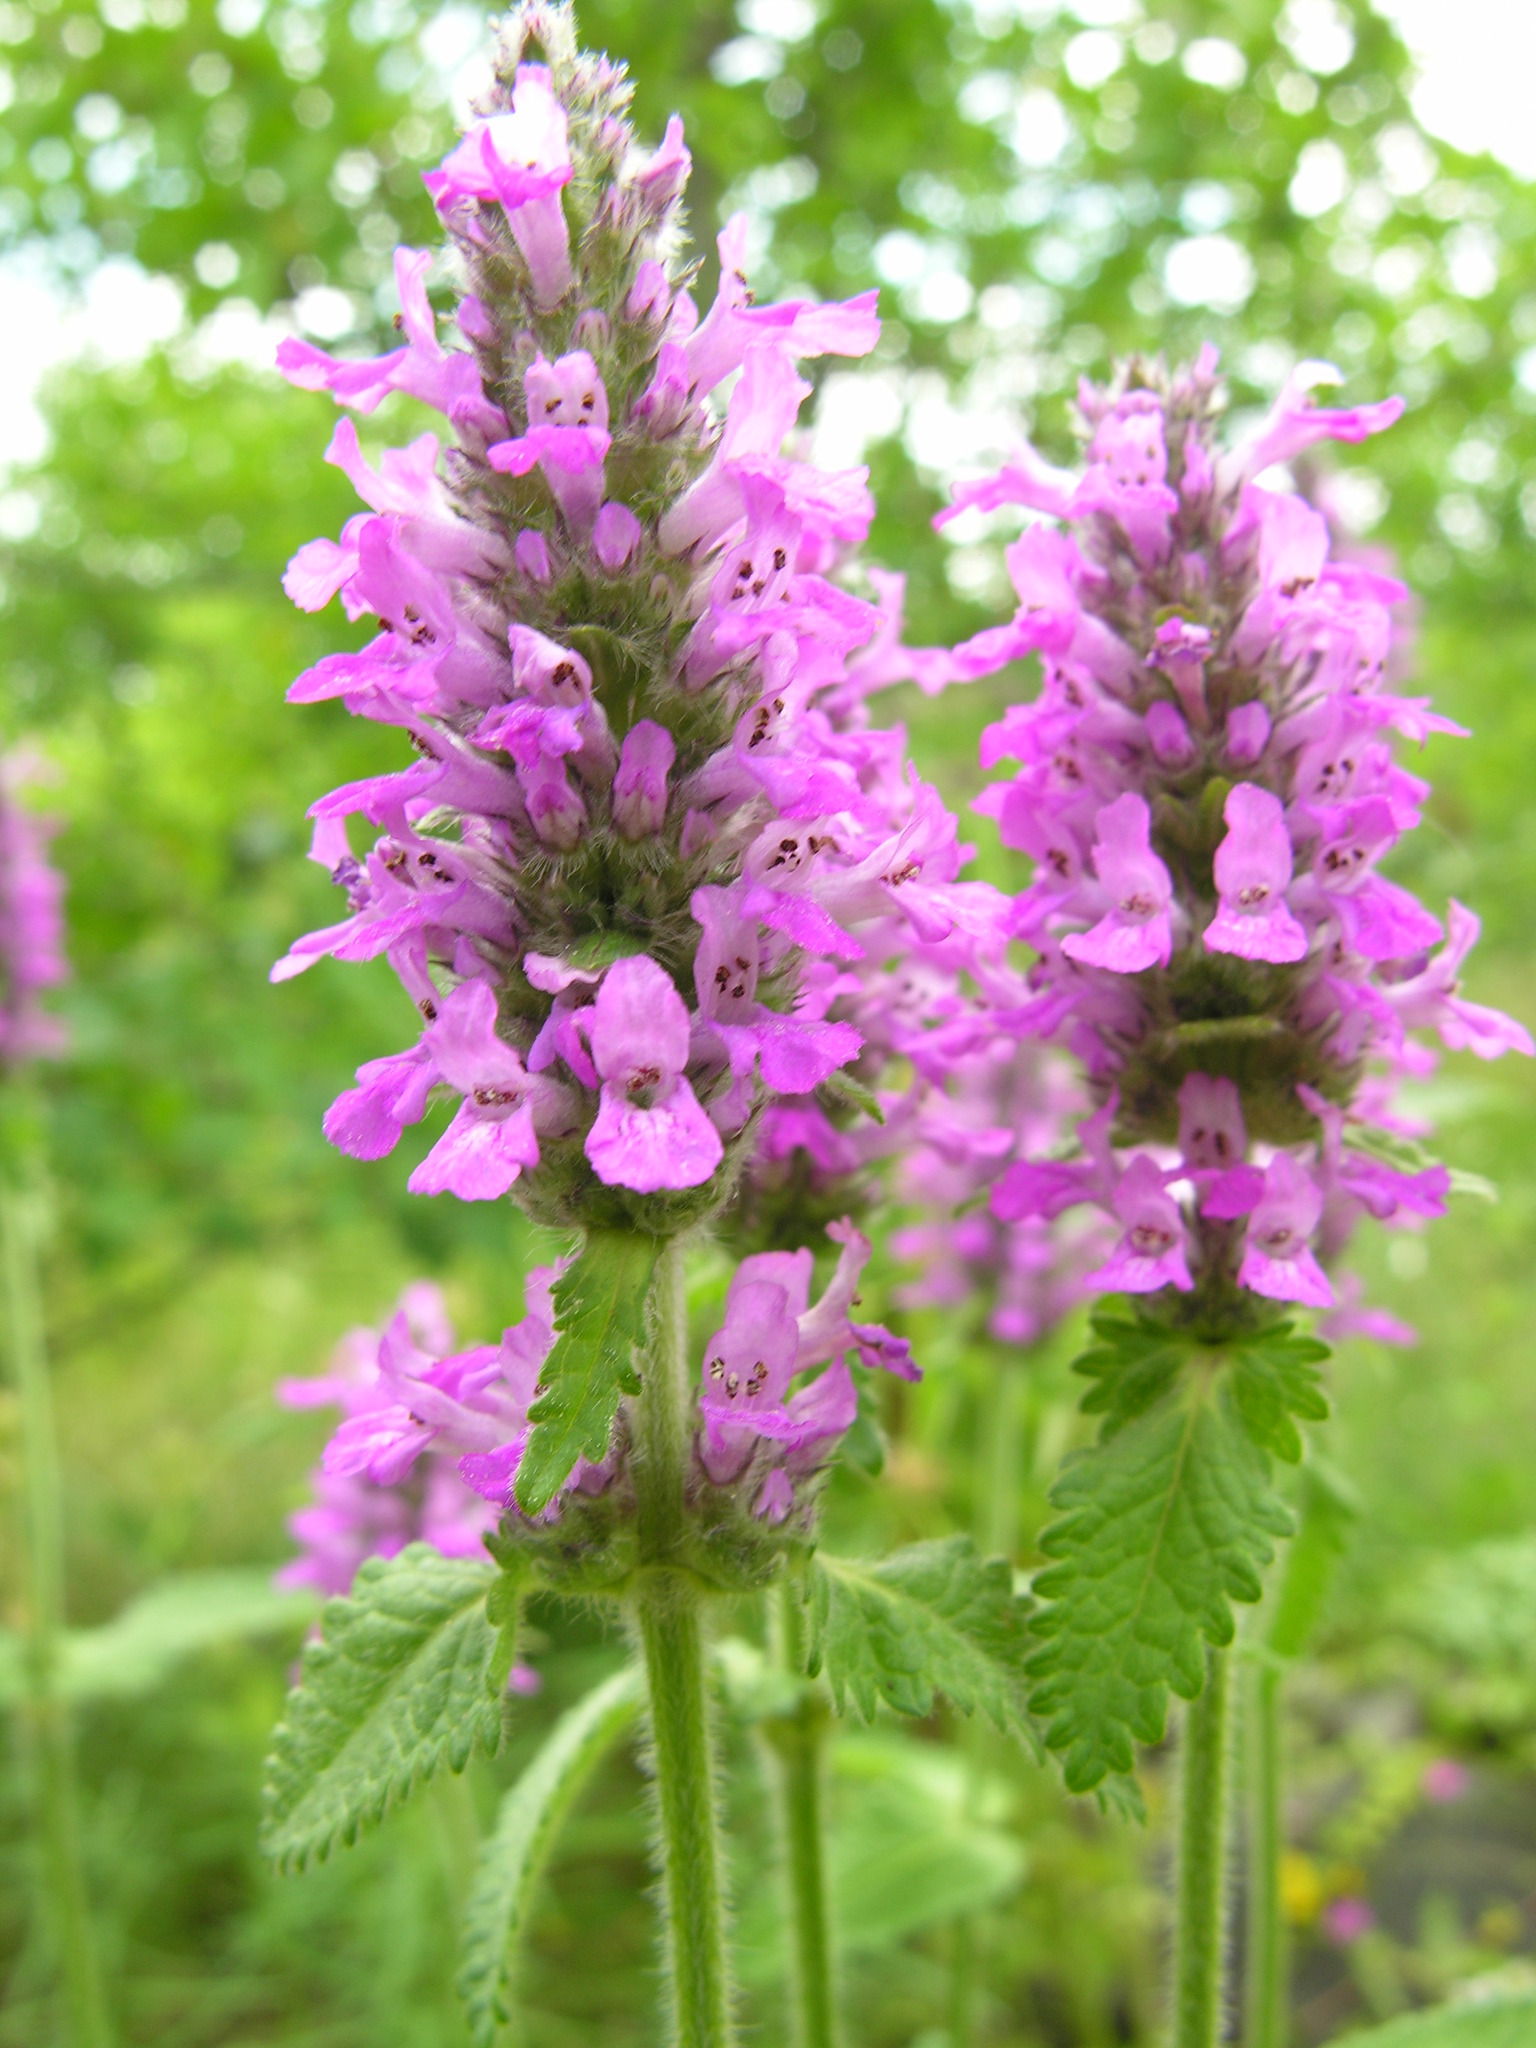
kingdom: Plantae
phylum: Tracheophyta
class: Magnoliopsida
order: Lamiales
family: Lamiaceae
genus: Betonica
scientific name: Betonica officinalis
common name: Bishop's-wort
